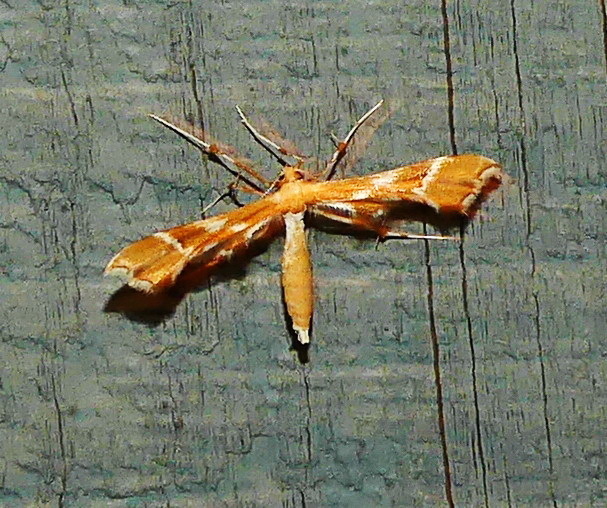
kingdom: Animalia
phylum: Arthropoda
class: Insecta
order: Lepidoptera
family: Pterophoridae
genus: Cnaemidophorus
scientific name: Cnaemidophorus rhododactyla
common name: Rose plume
